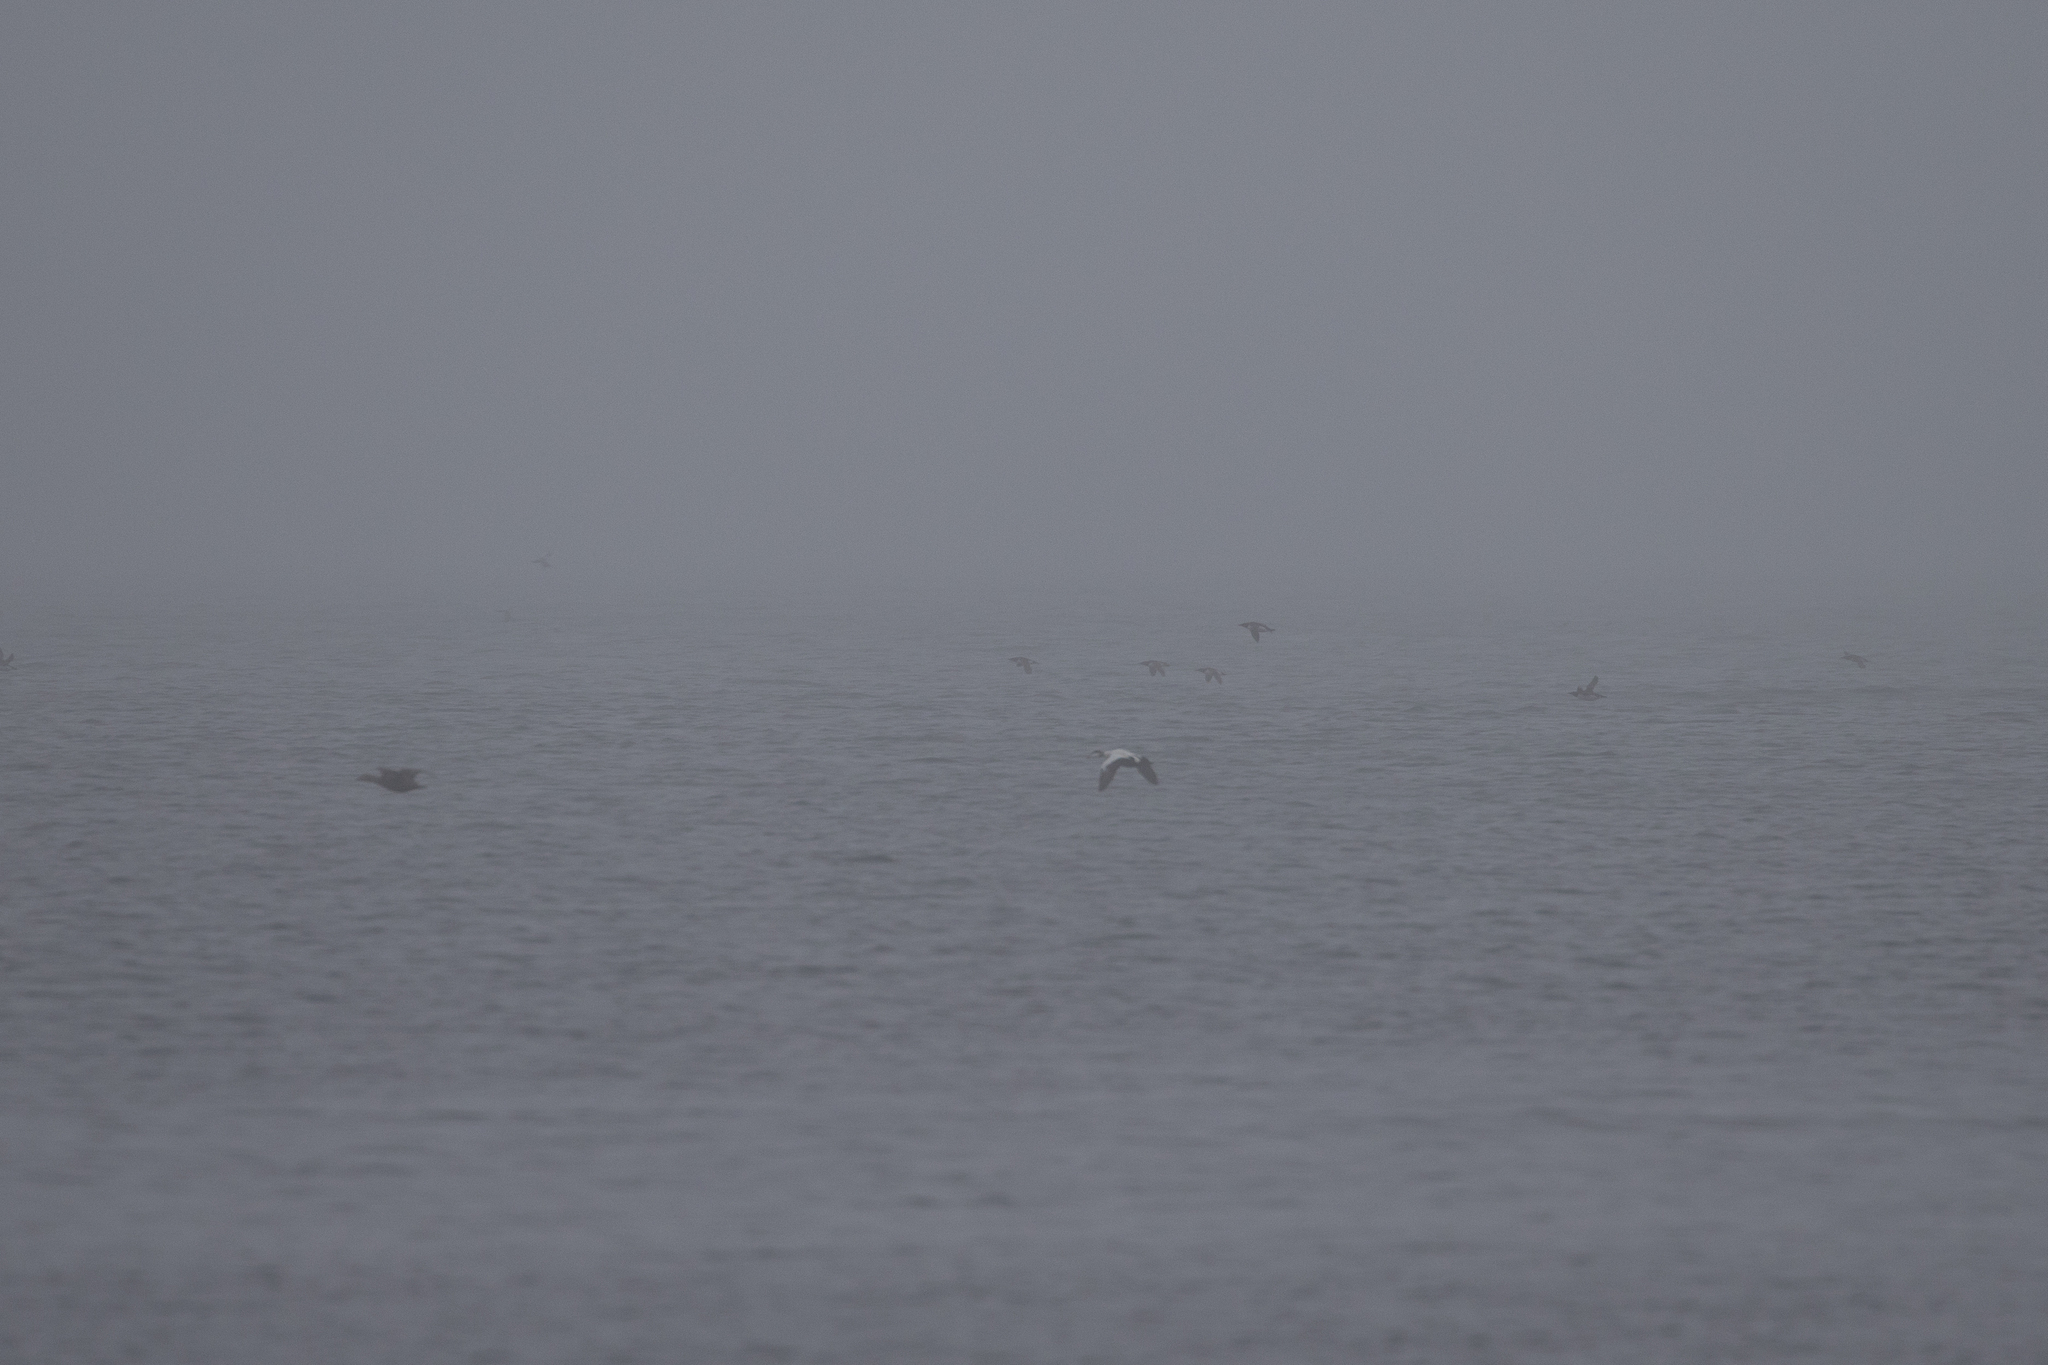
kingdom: Animalia
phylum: Chordata
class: Aves
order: Anseriformes
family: Anatidae
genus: Somateria
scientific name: Somateria mollissima
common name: Common eider
